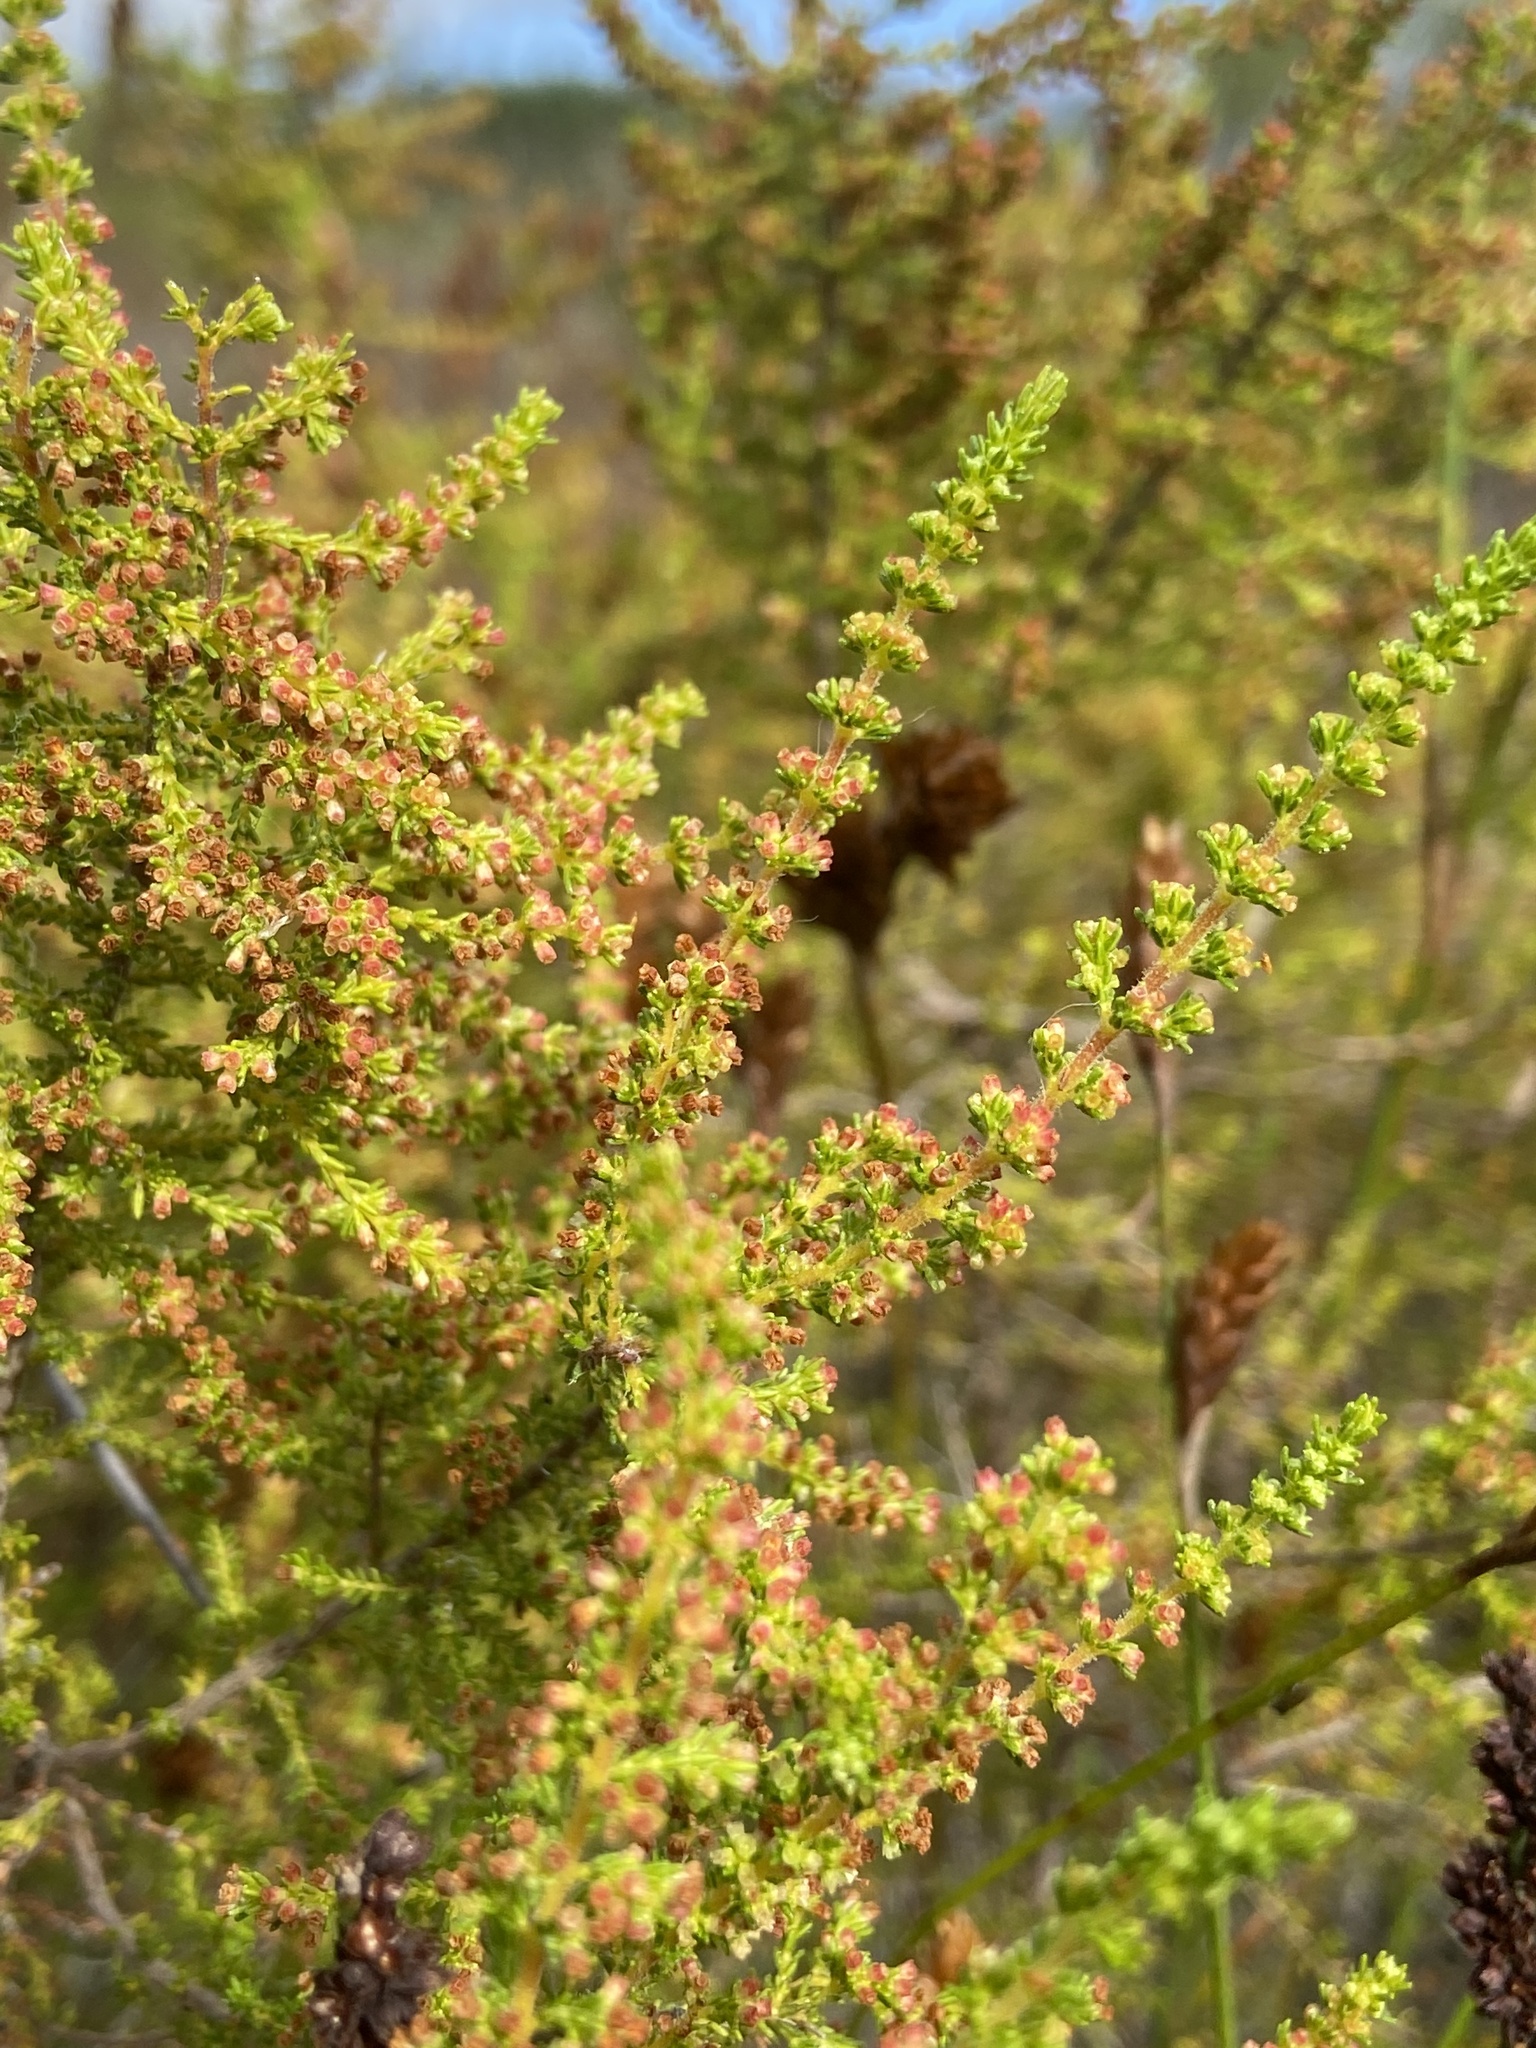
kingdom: Plantae
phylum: Tracheophyta
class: Magnoliopsida
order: Ericales
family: Ericaceae
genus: Erica
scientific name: Erica muscosa
